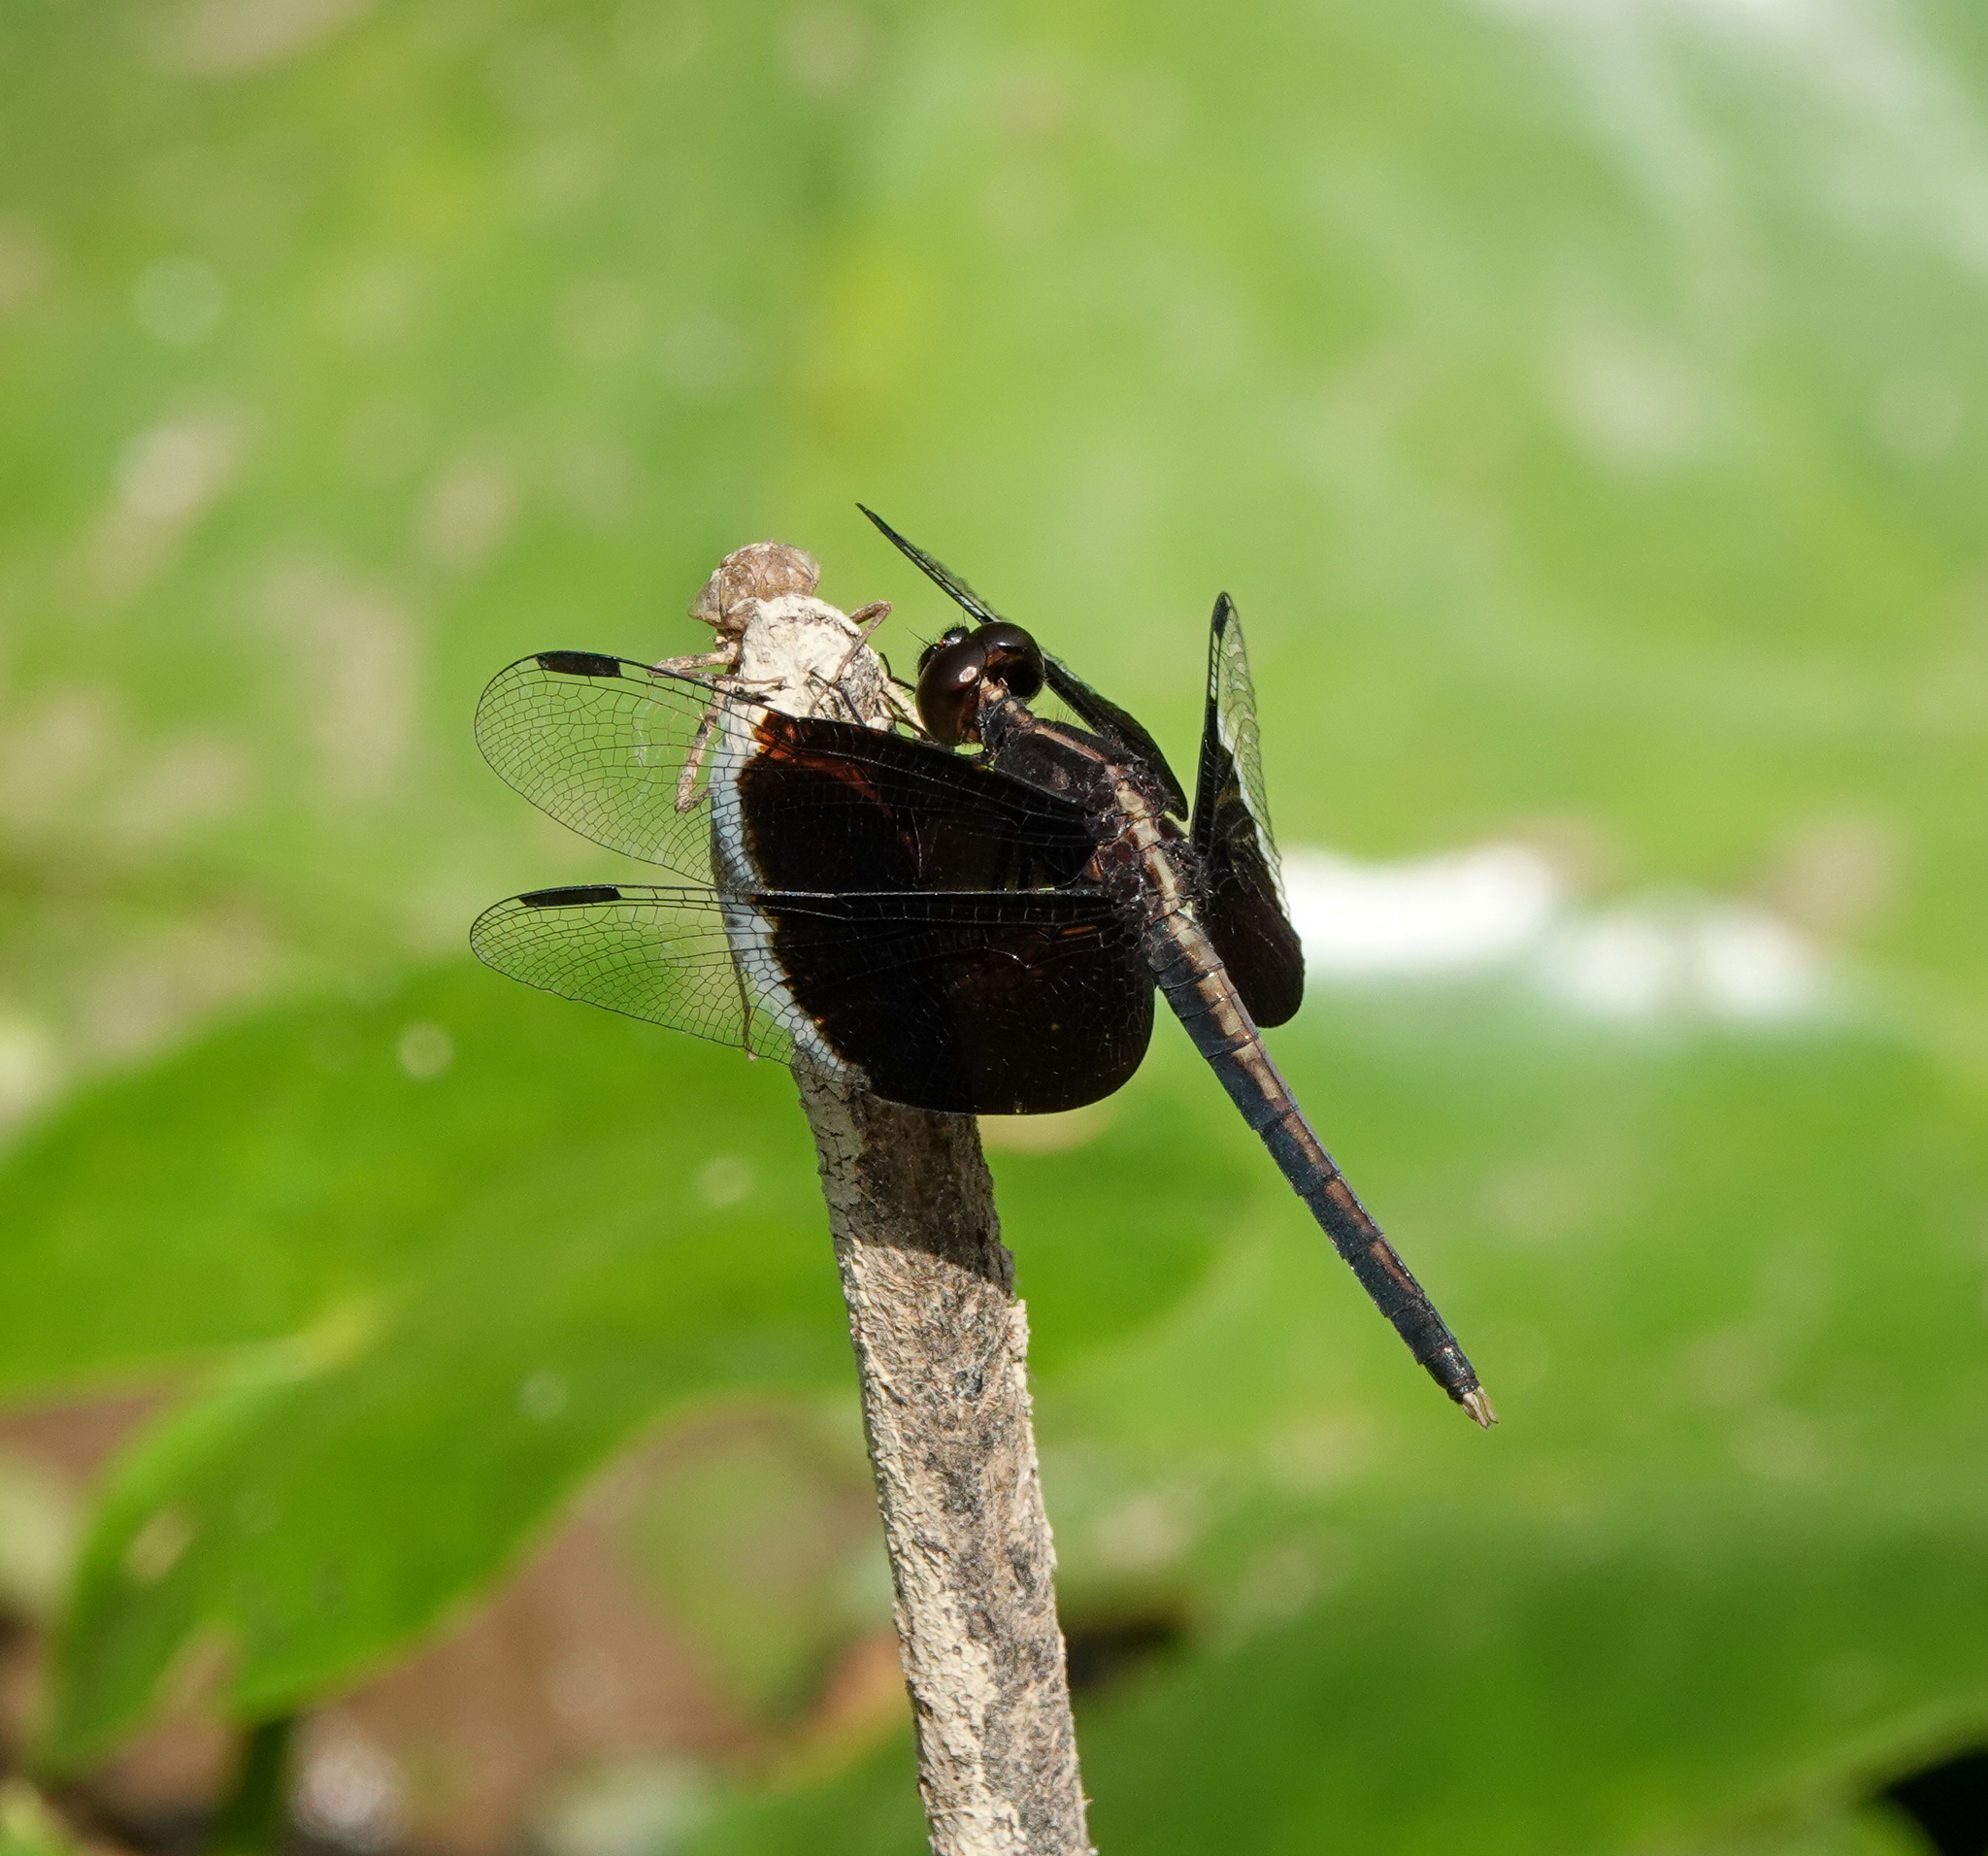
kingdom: Animalia
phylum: Arthropoda
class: Insecta
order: Odonata
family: Libellulidae
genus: Neurothemis
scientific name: Neurothemis tullia
